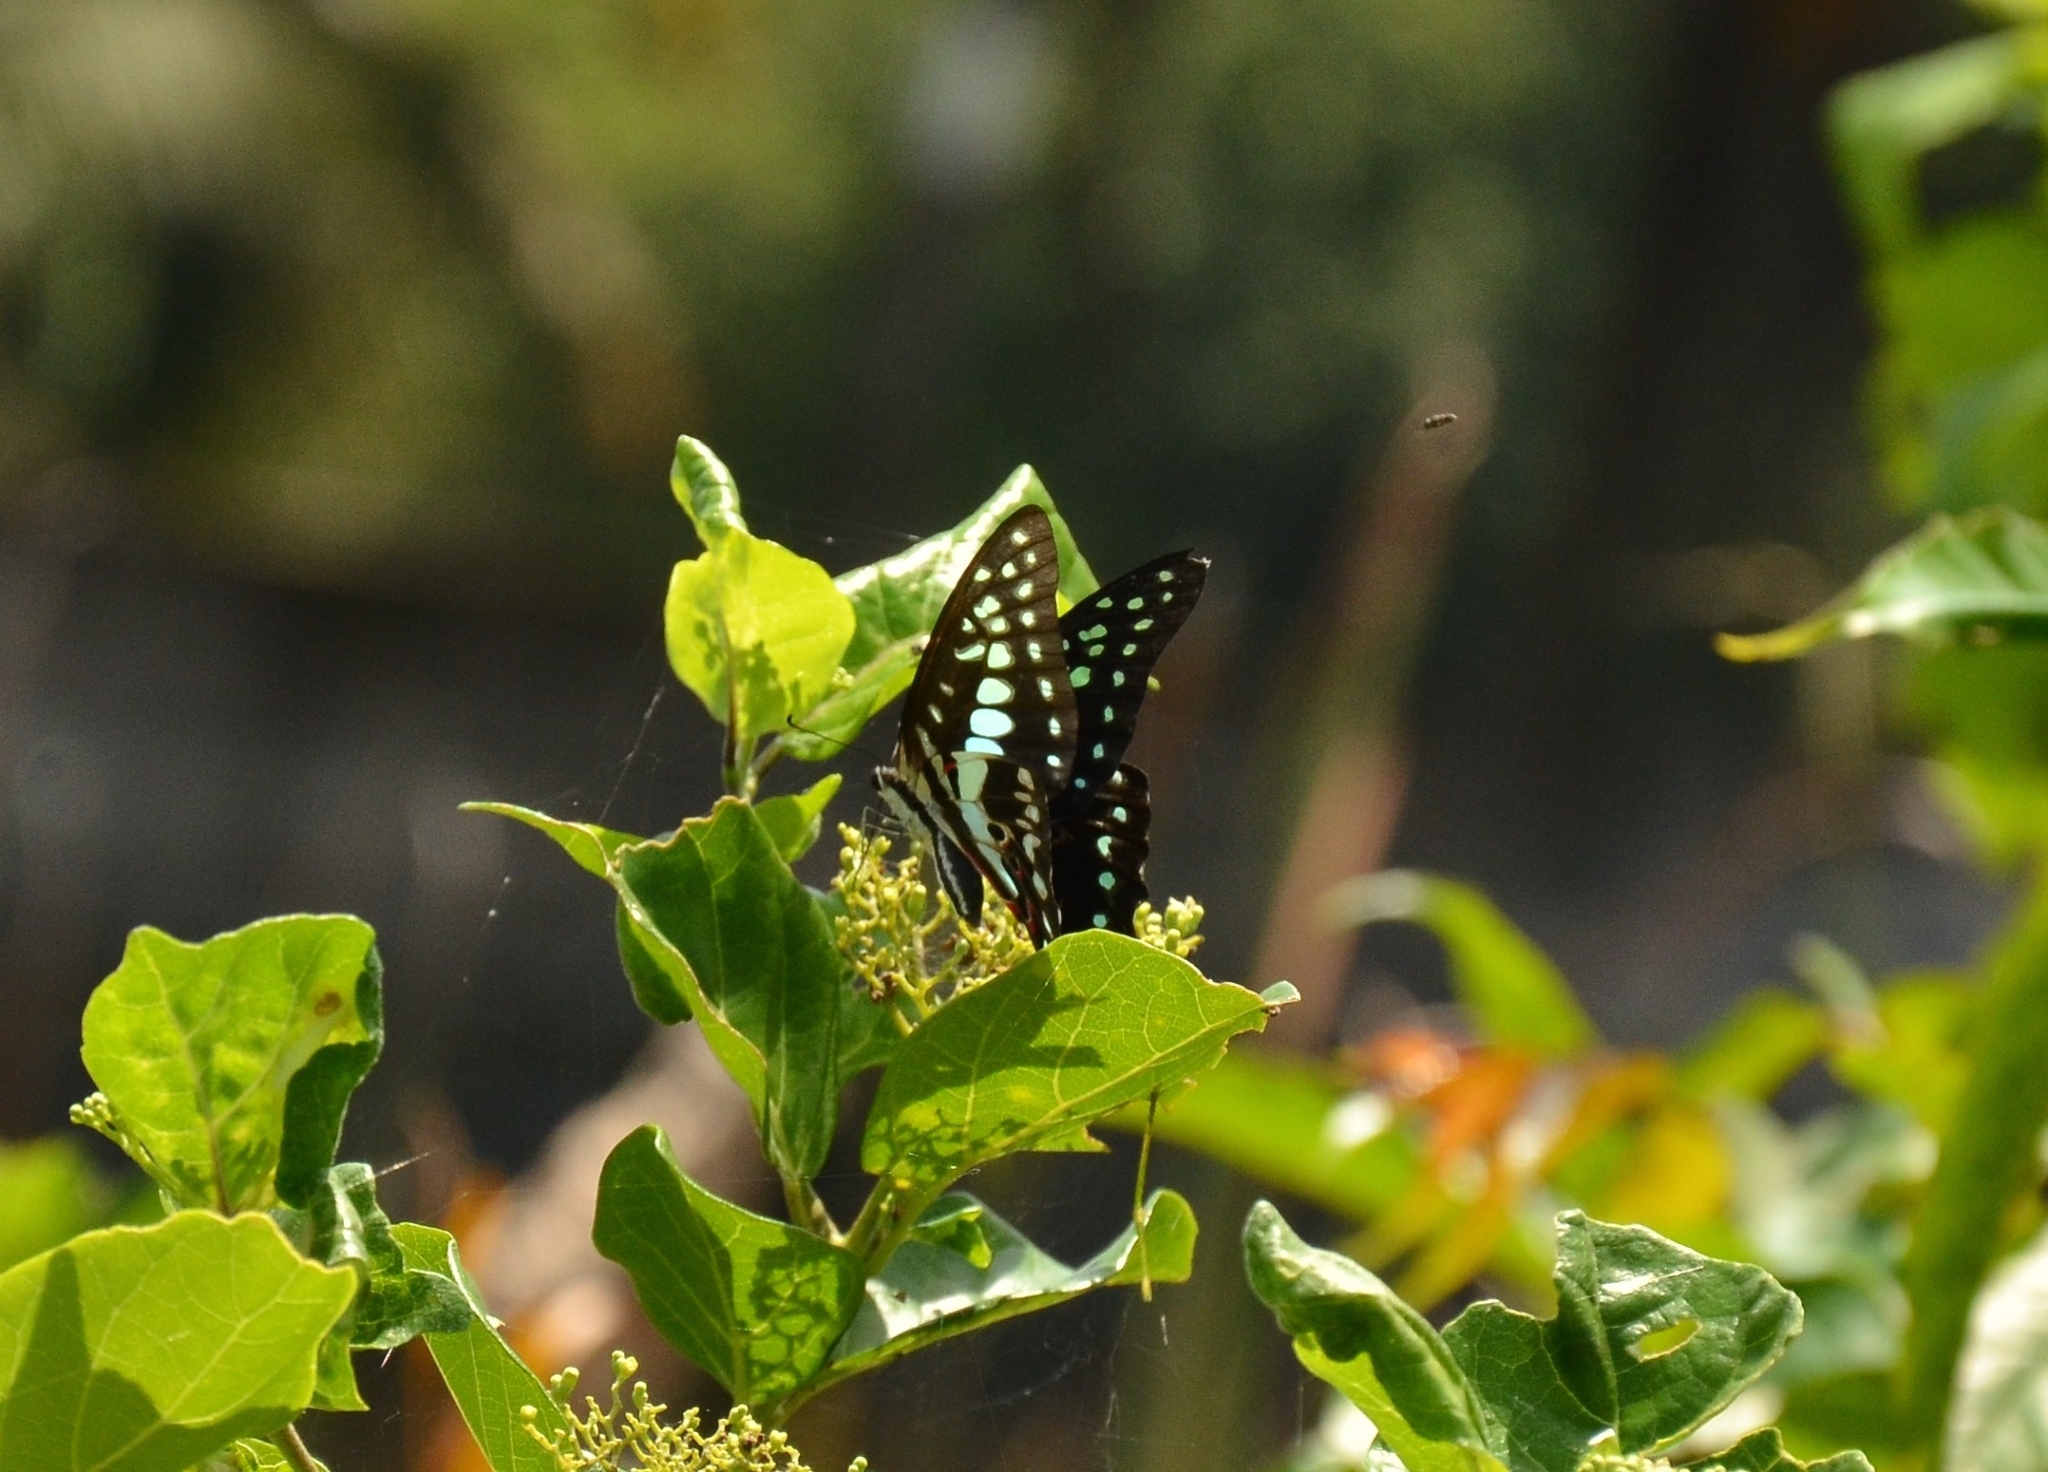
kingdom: Animalia
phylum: Arthropoda
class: Insecta
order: Lepidoptera
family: Papilionidae
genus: Graphium
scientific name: Graphium doson
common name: Common jay
